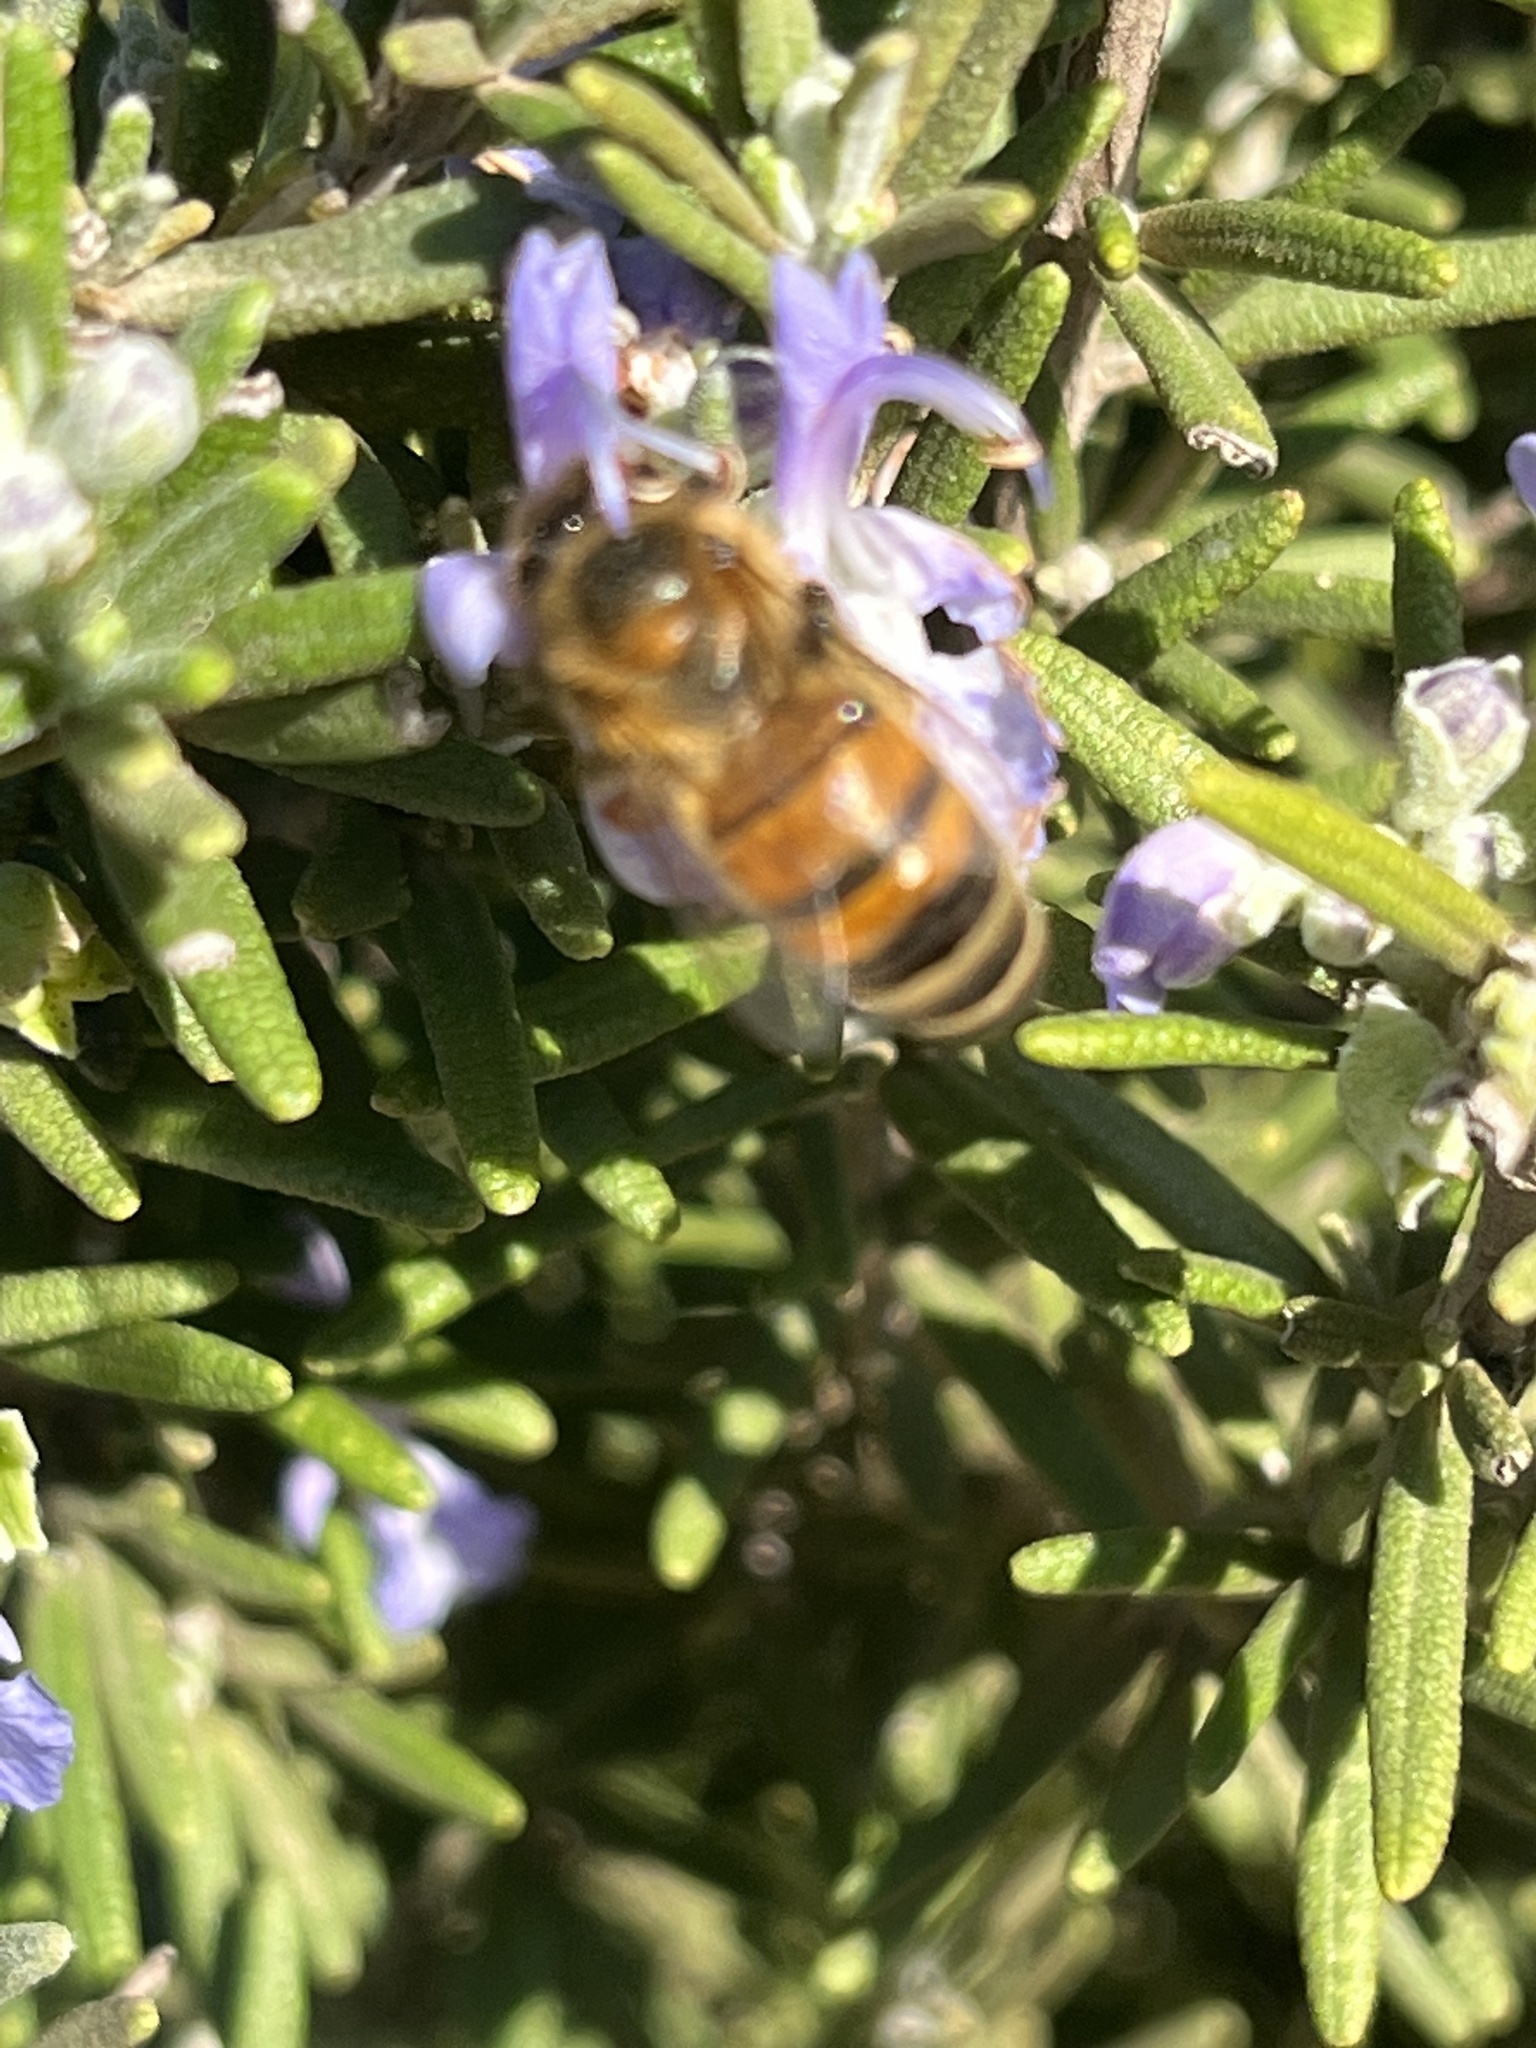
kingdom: Animalia
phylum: Arthropoda
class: Insecta
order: Hymenoptera
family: Apidae
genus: Apis
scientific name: Apis mellifera
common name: Honey bee
